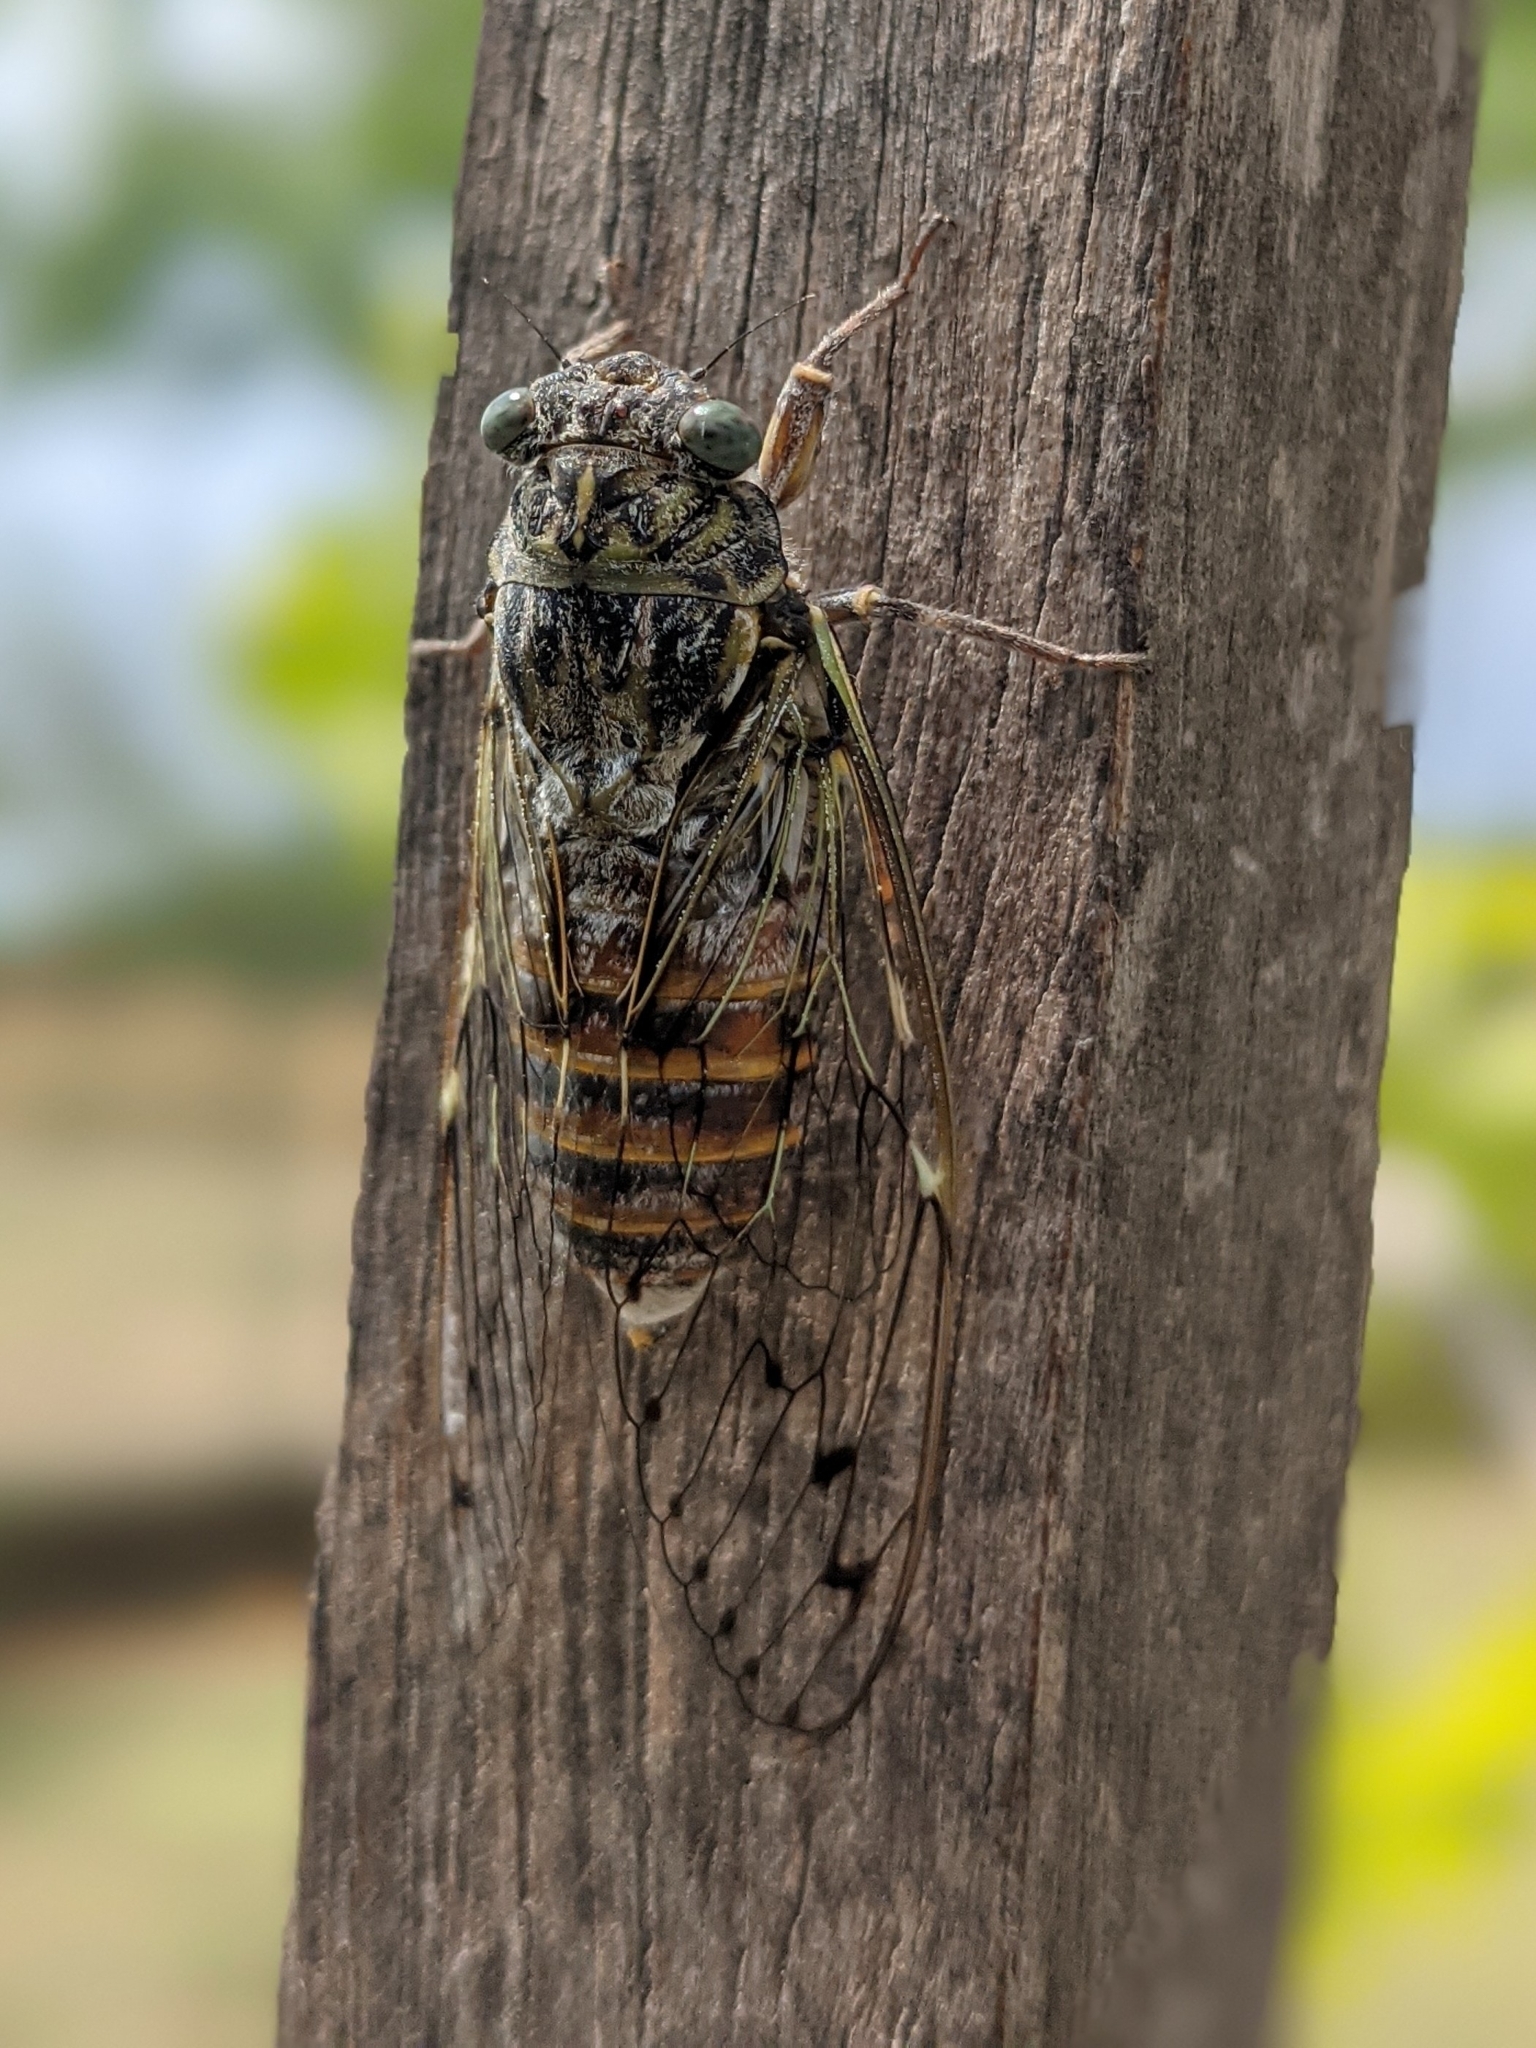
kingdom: Animalia
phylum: Arthropoda
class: Insecta
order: Hemiptera
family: Cicadidae
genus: Cicada
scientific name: Cicada orni
